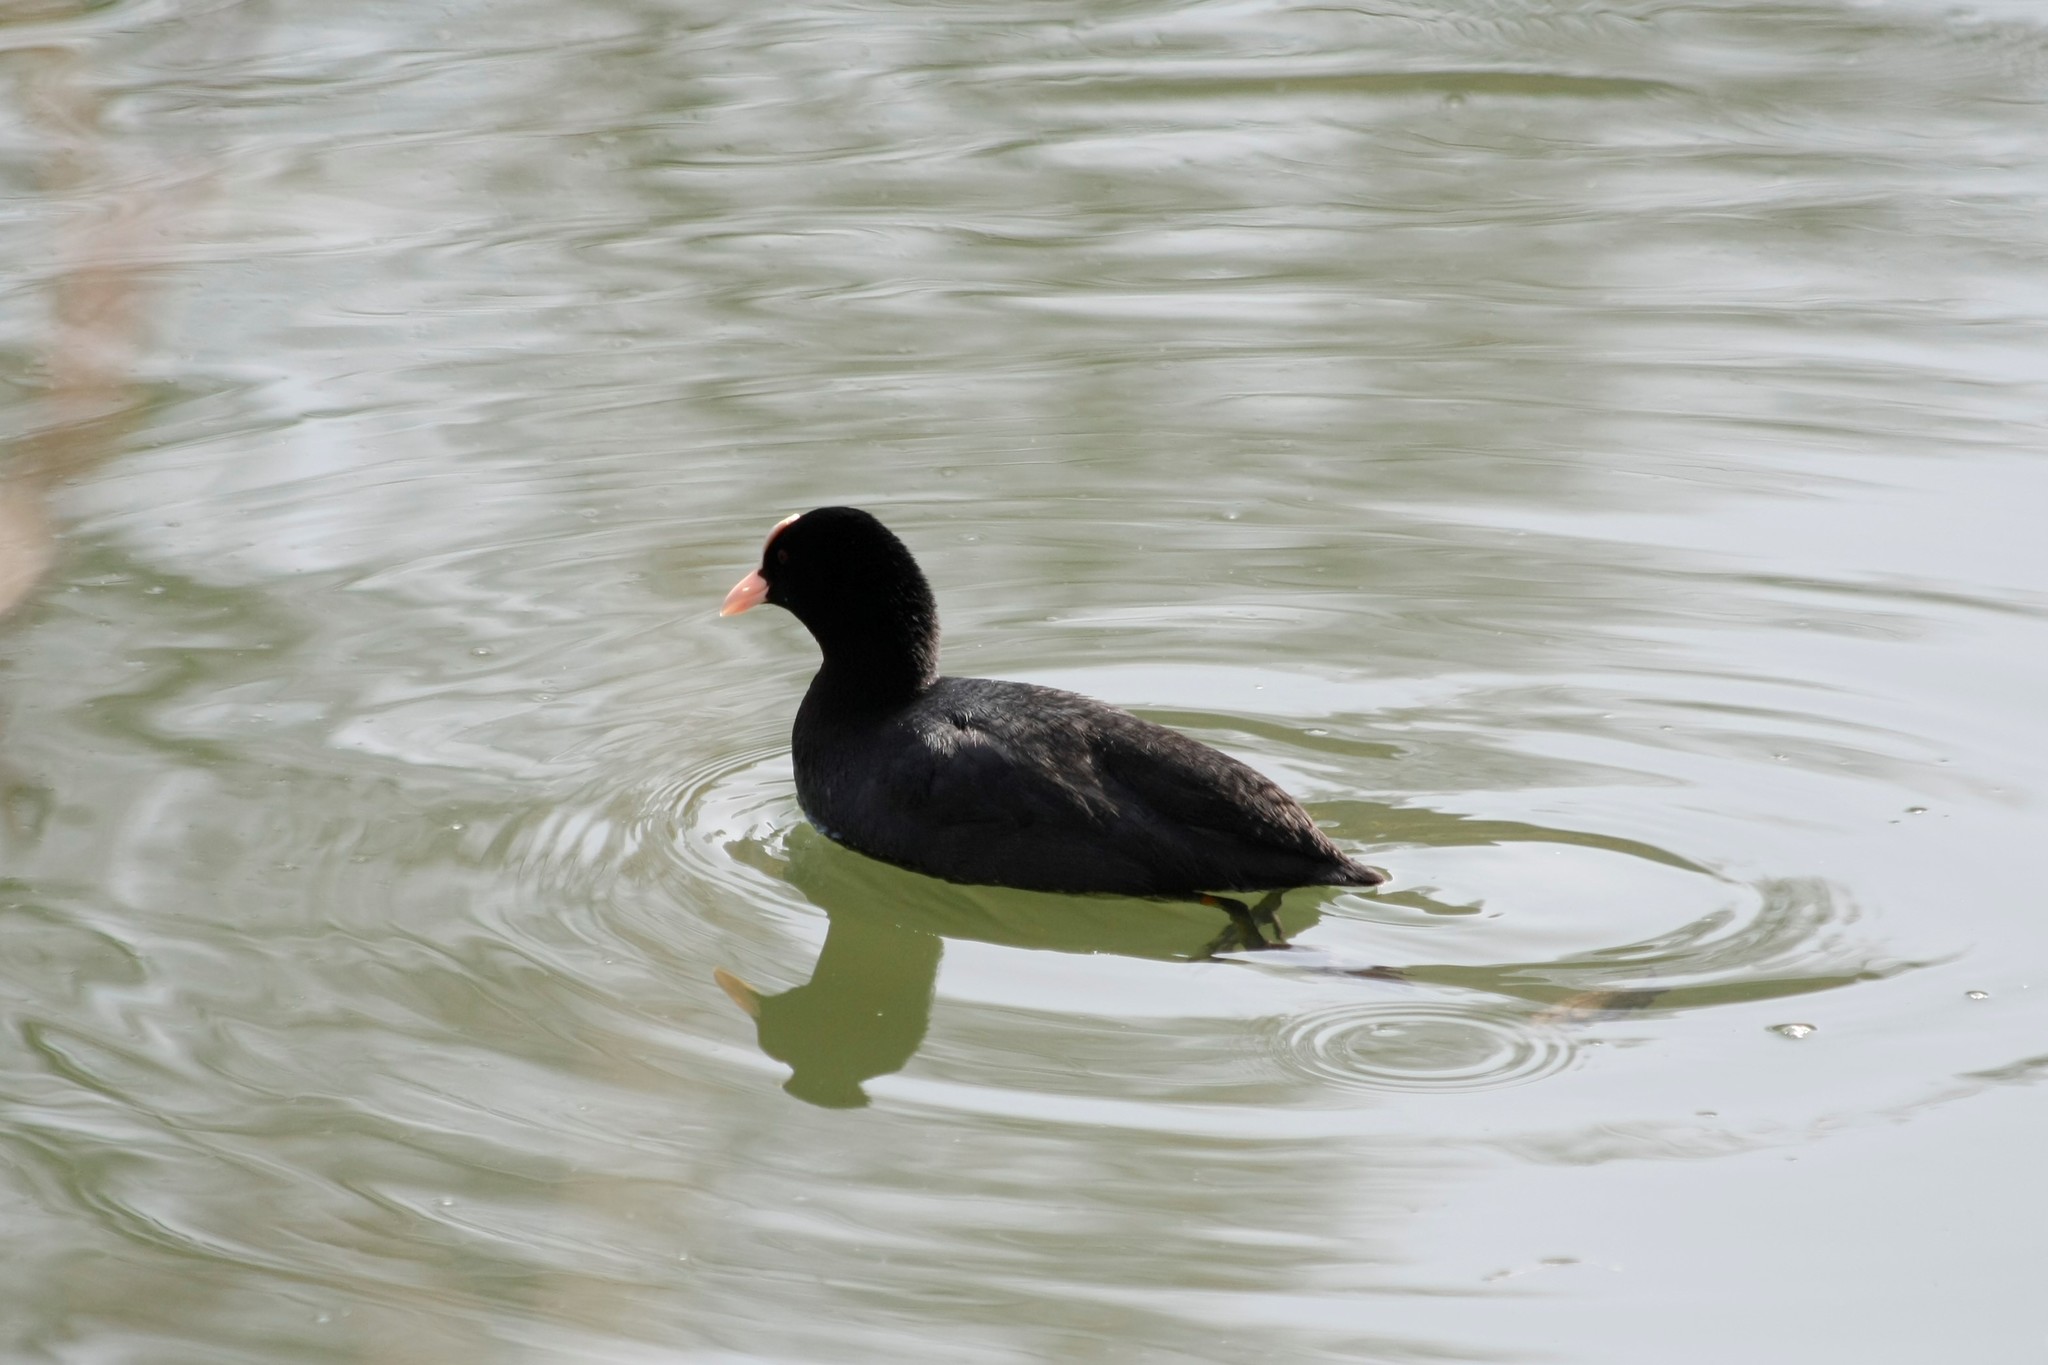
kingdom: Animalia
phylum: Chordata
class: Aves
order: Gruiformes
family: Rallidae
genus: Fulica
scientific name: Fulica atra
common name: Eurasian coot
